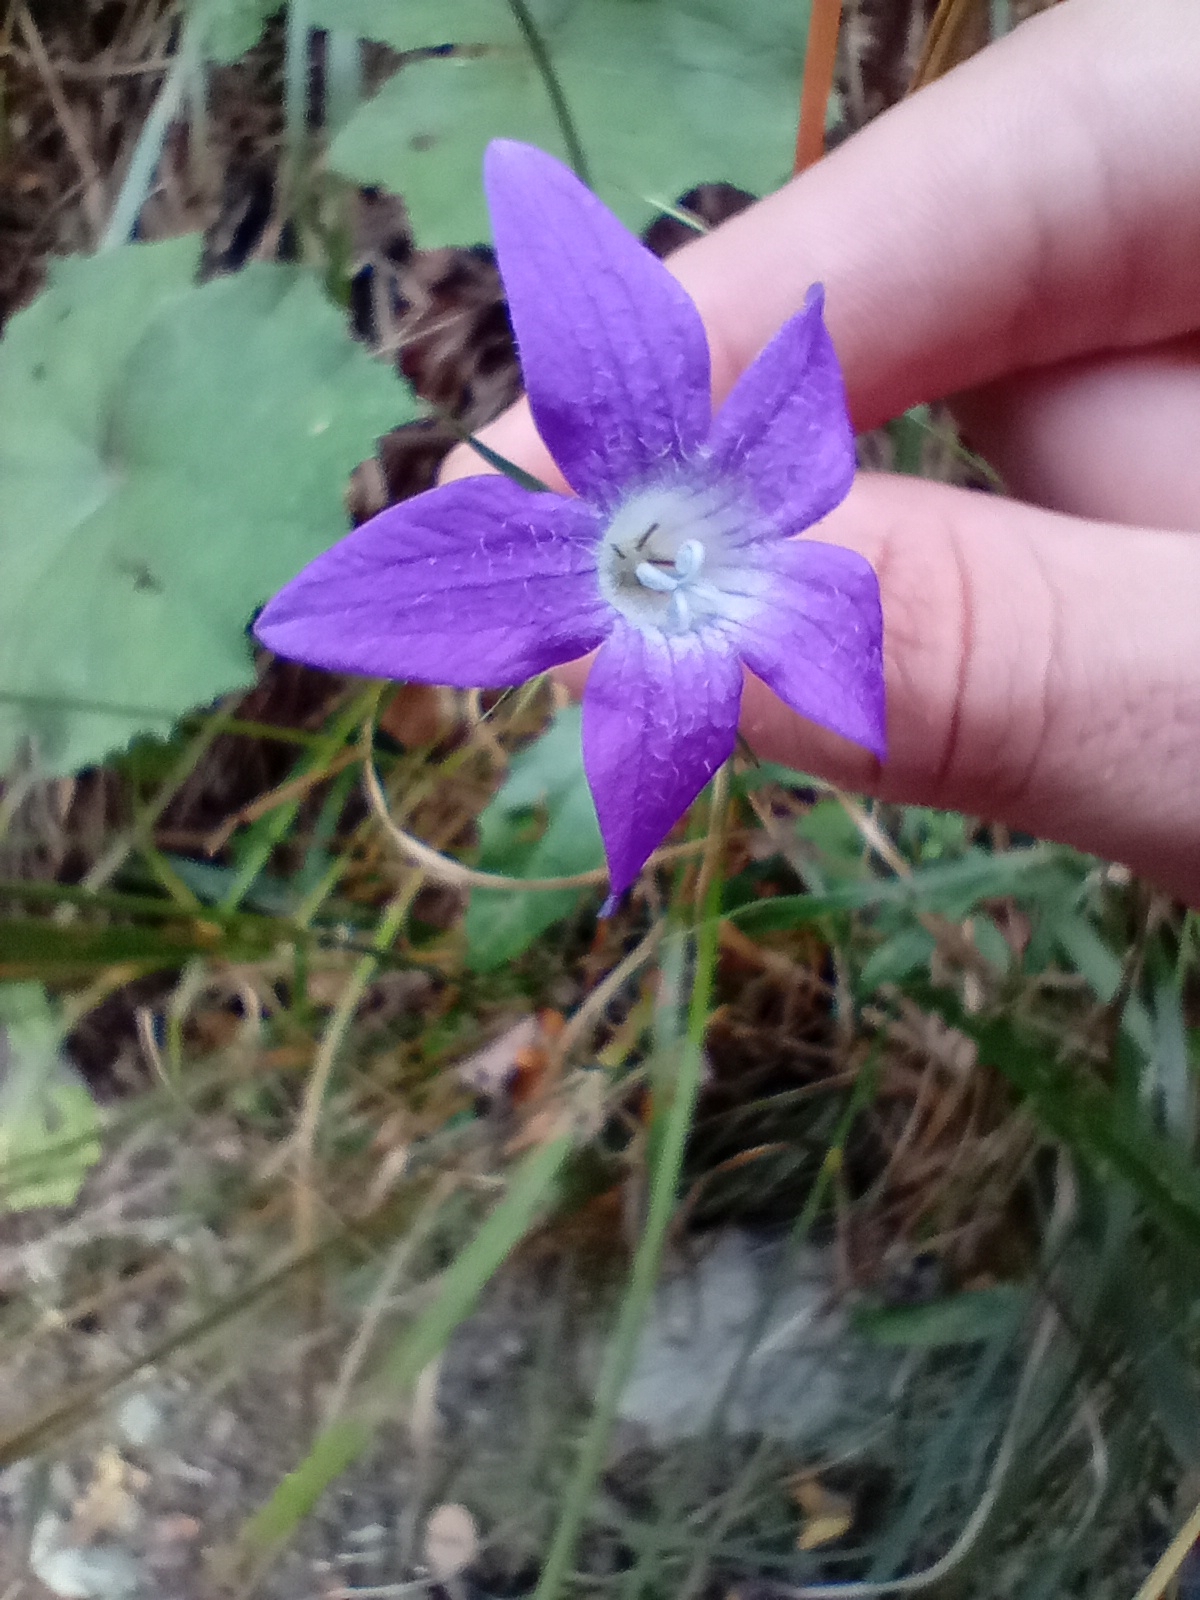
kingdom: Plantae
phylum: Tracheophyta
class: Magnoliopsida
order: Asterales
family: Campanulaceae
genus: Campanula
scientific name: Campanula patula
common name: Spreading bellflower
